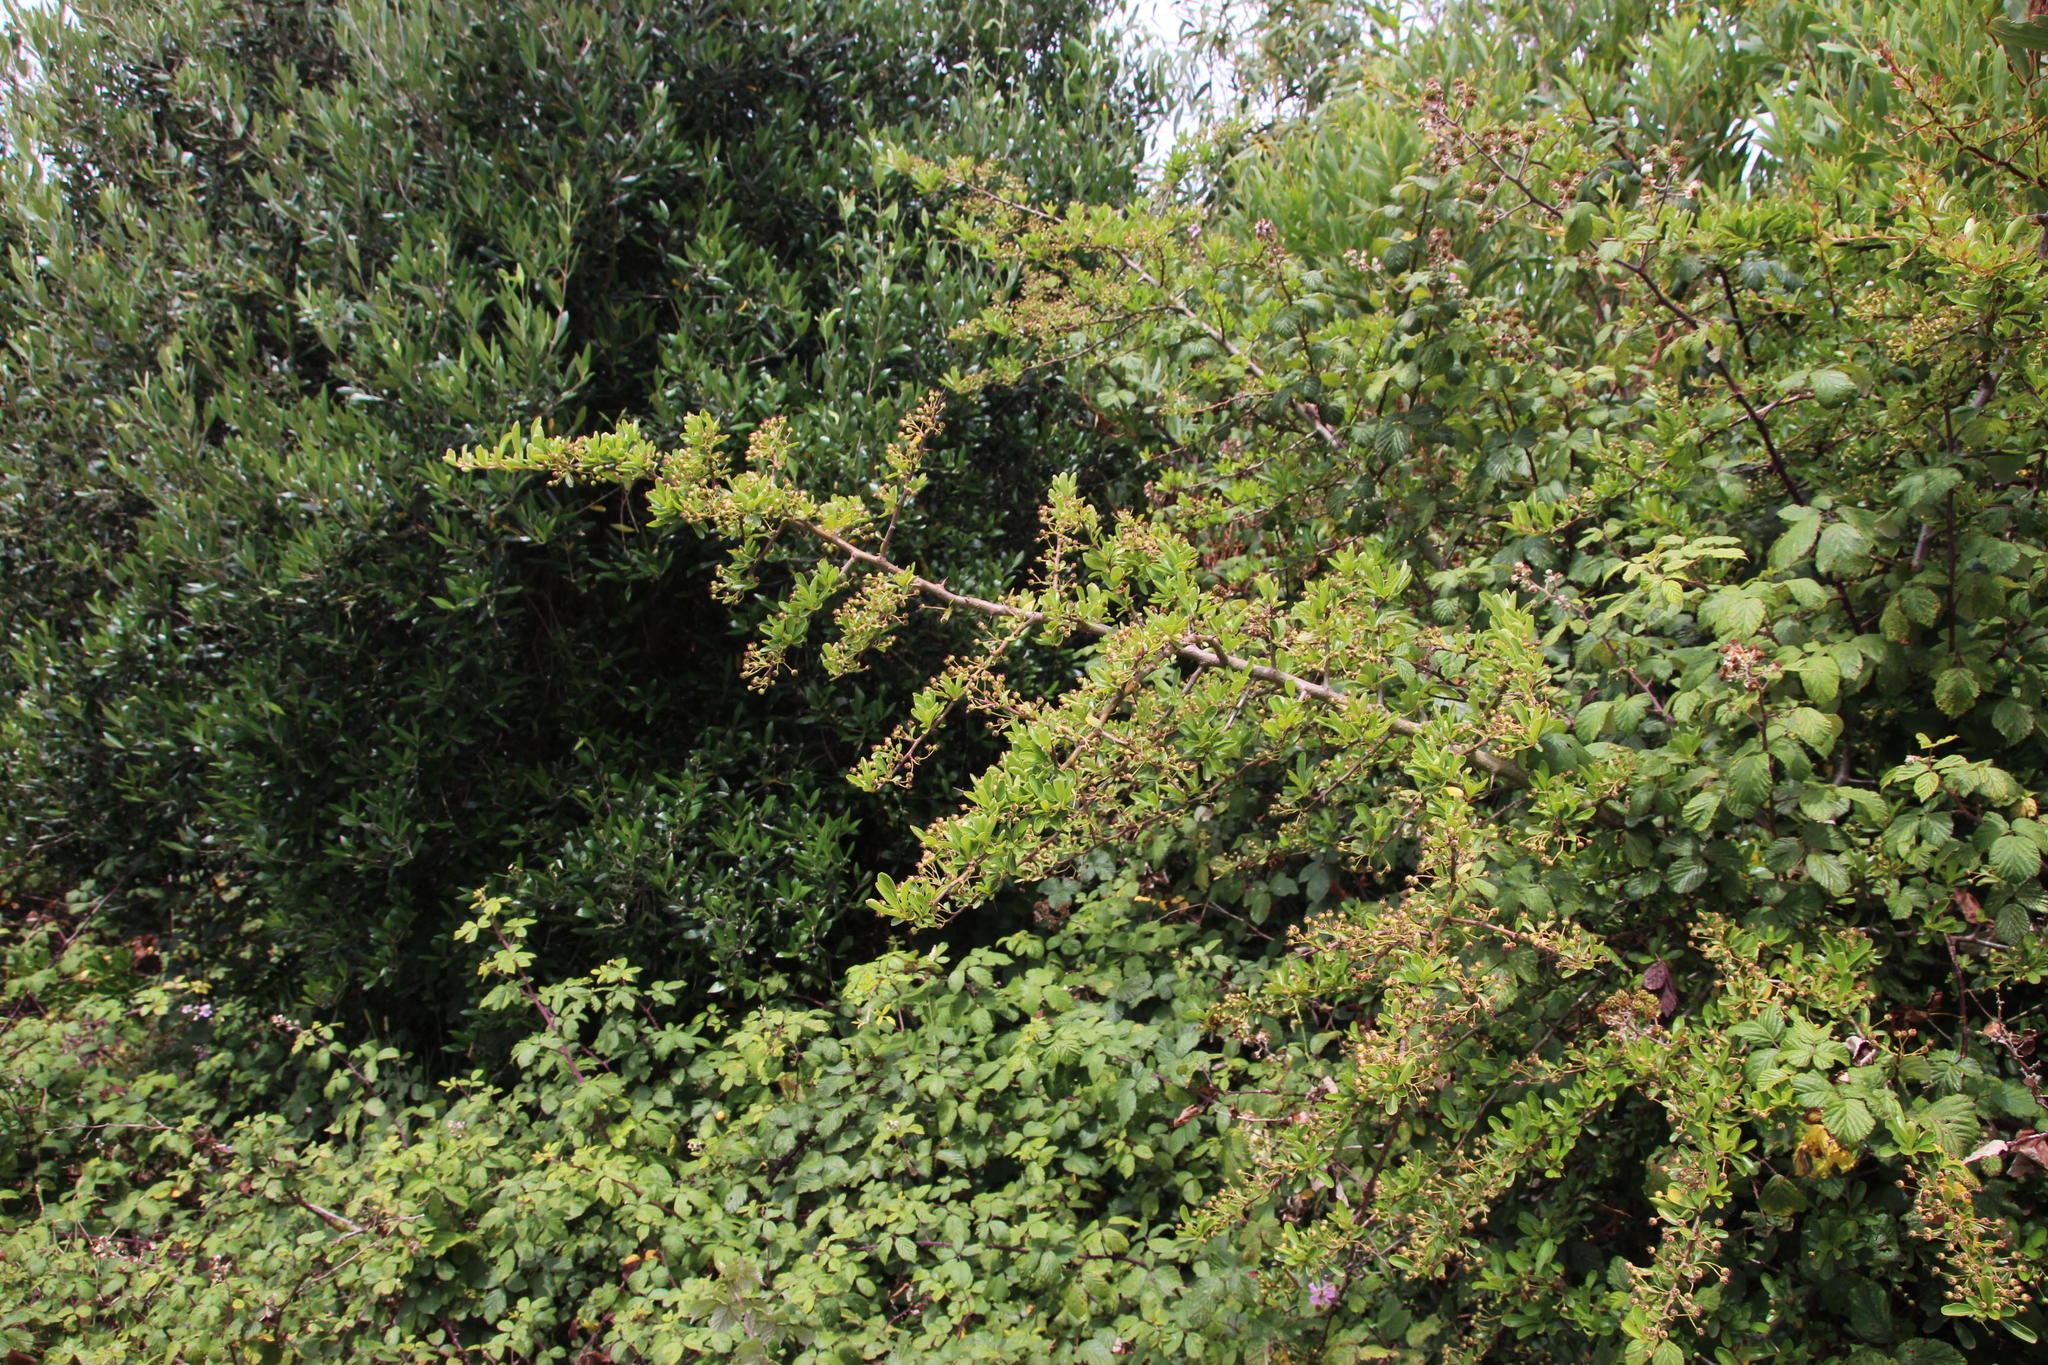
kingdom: Plantae
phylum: Tracheophyta
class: Magnoliopsida
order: Rosales
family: Rosaceae
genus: Pyracantha
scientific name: Pyracantha coccinea
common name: Firethorn
